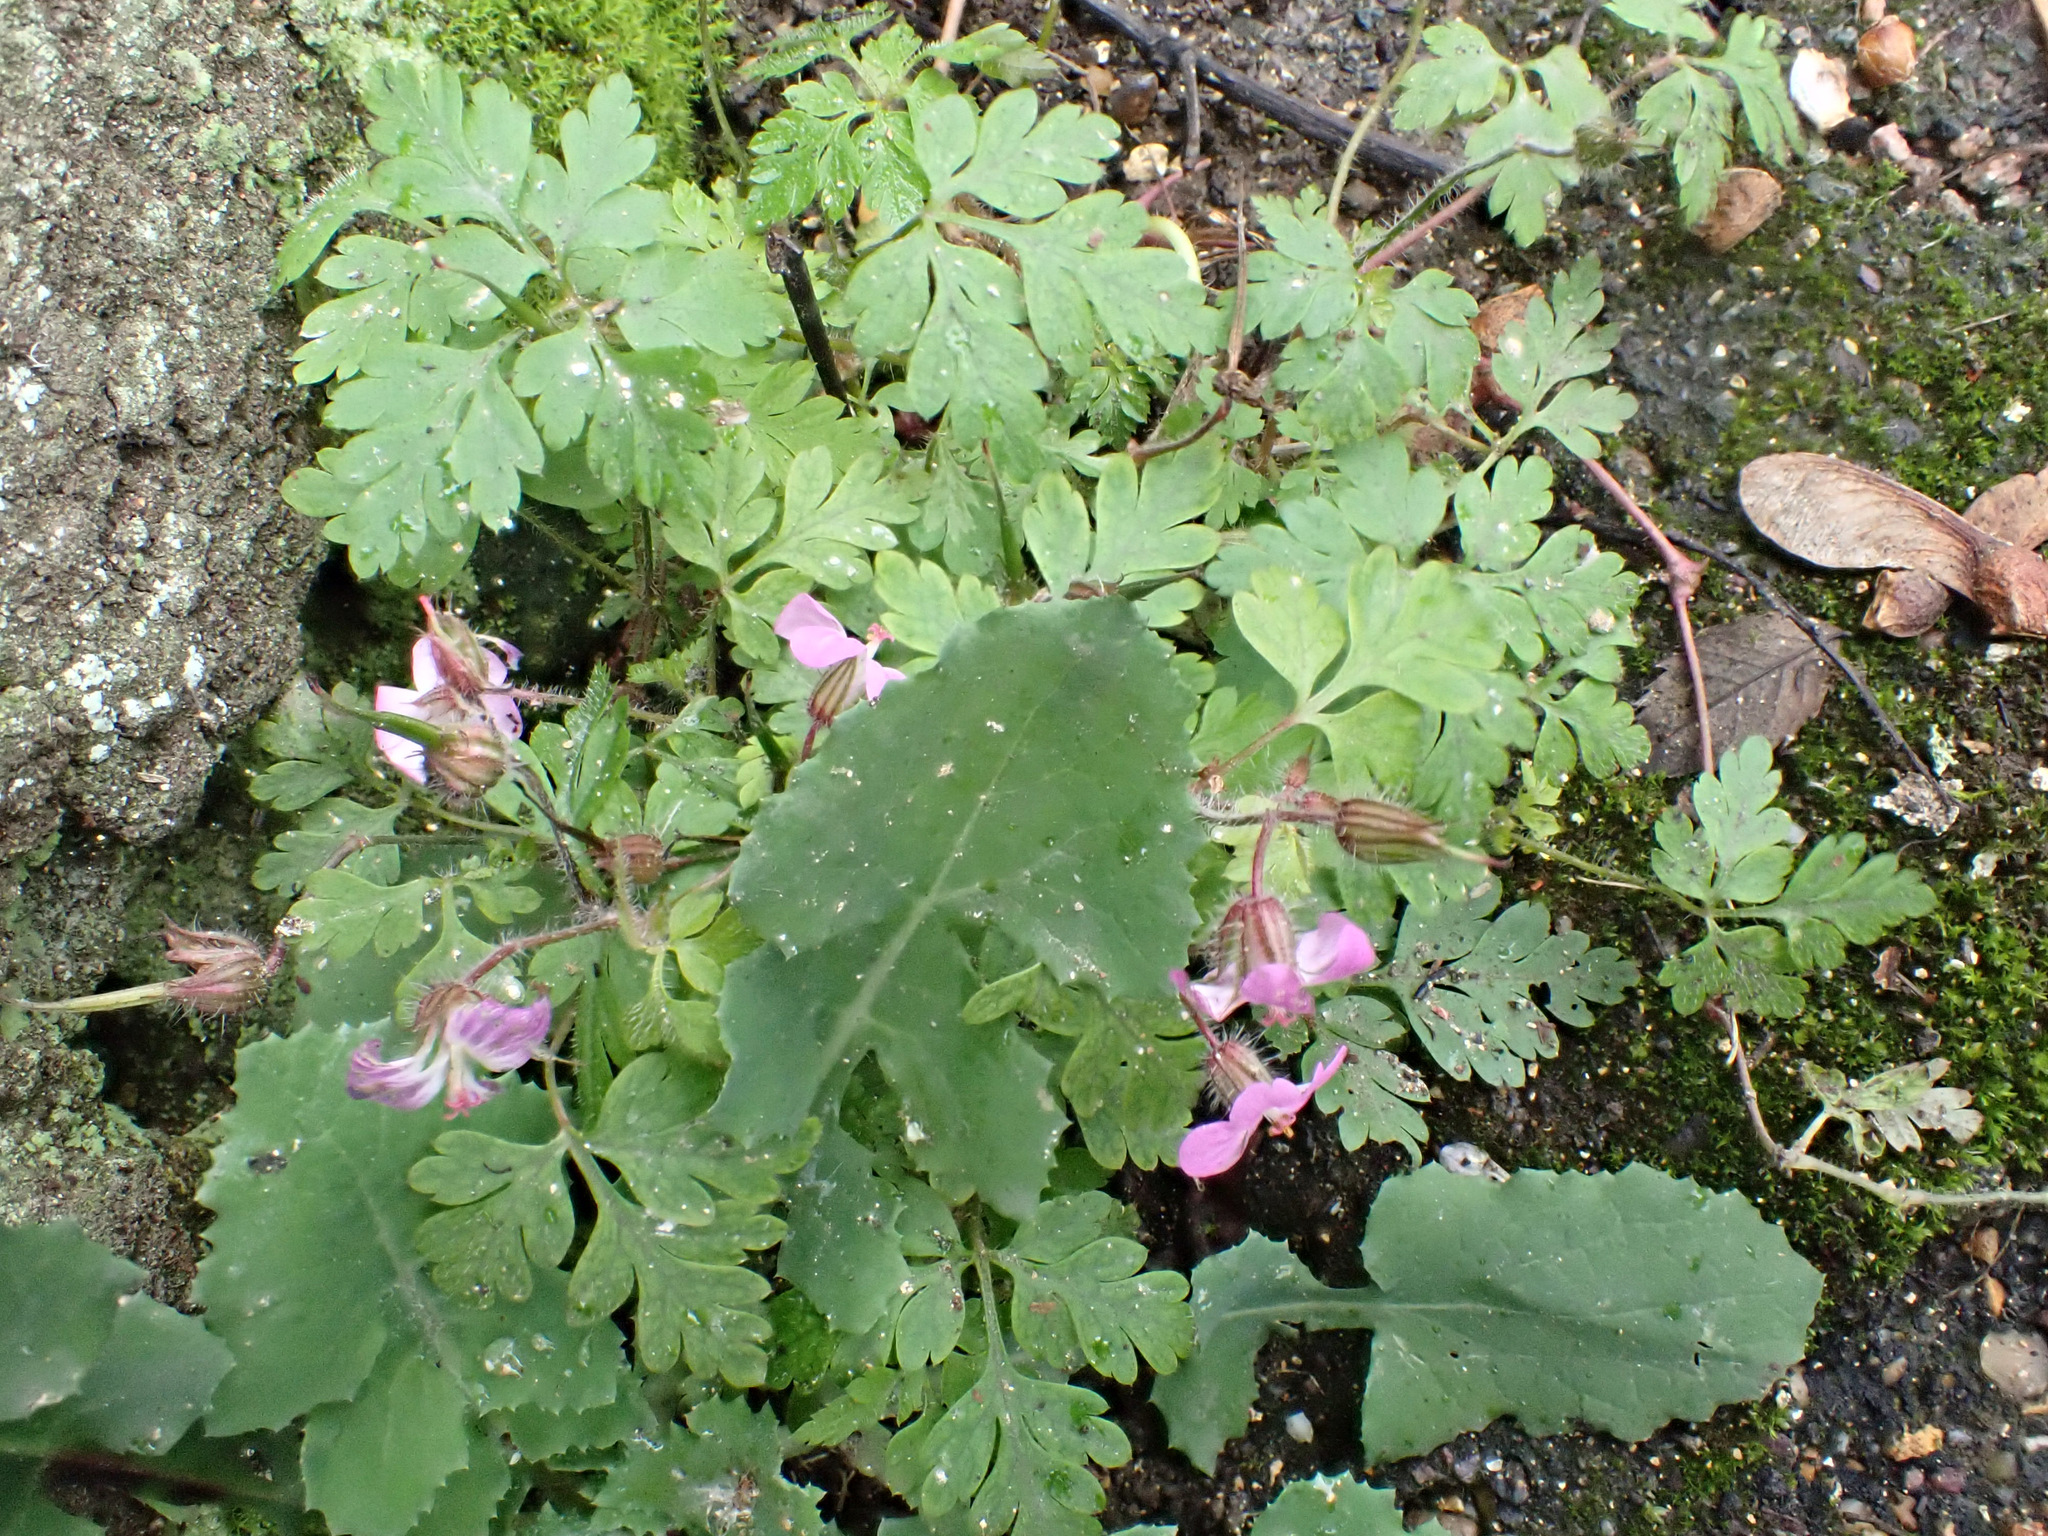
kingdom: Plantae
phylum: Tracheophyta
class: Magnoliopsida
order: Geraniales
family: Geraniaceae
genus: Geranium
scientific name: Geranium robertianum
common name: Herb-robert
